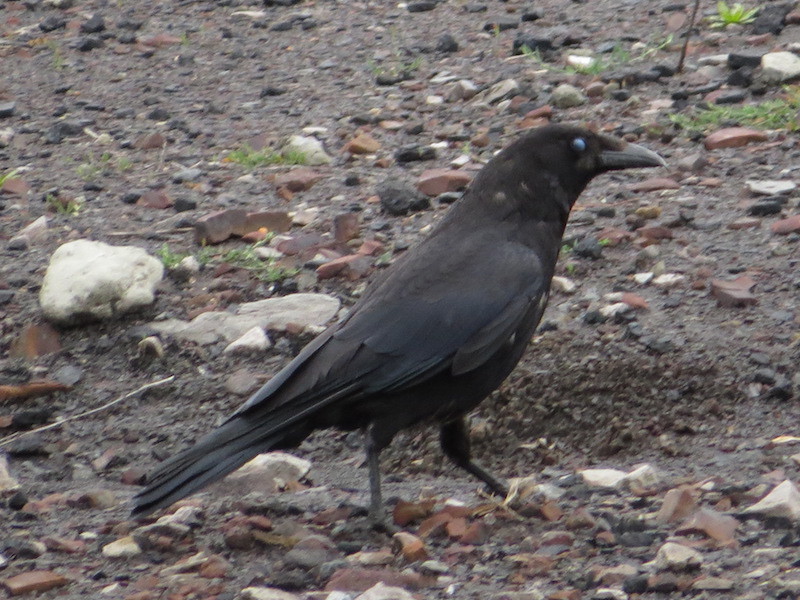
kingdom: Animalia
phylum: Chordata
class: Aves
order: Passeriformes
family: Corvidae
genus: Corvus
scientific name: Corvus corone
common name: Carrion crow
